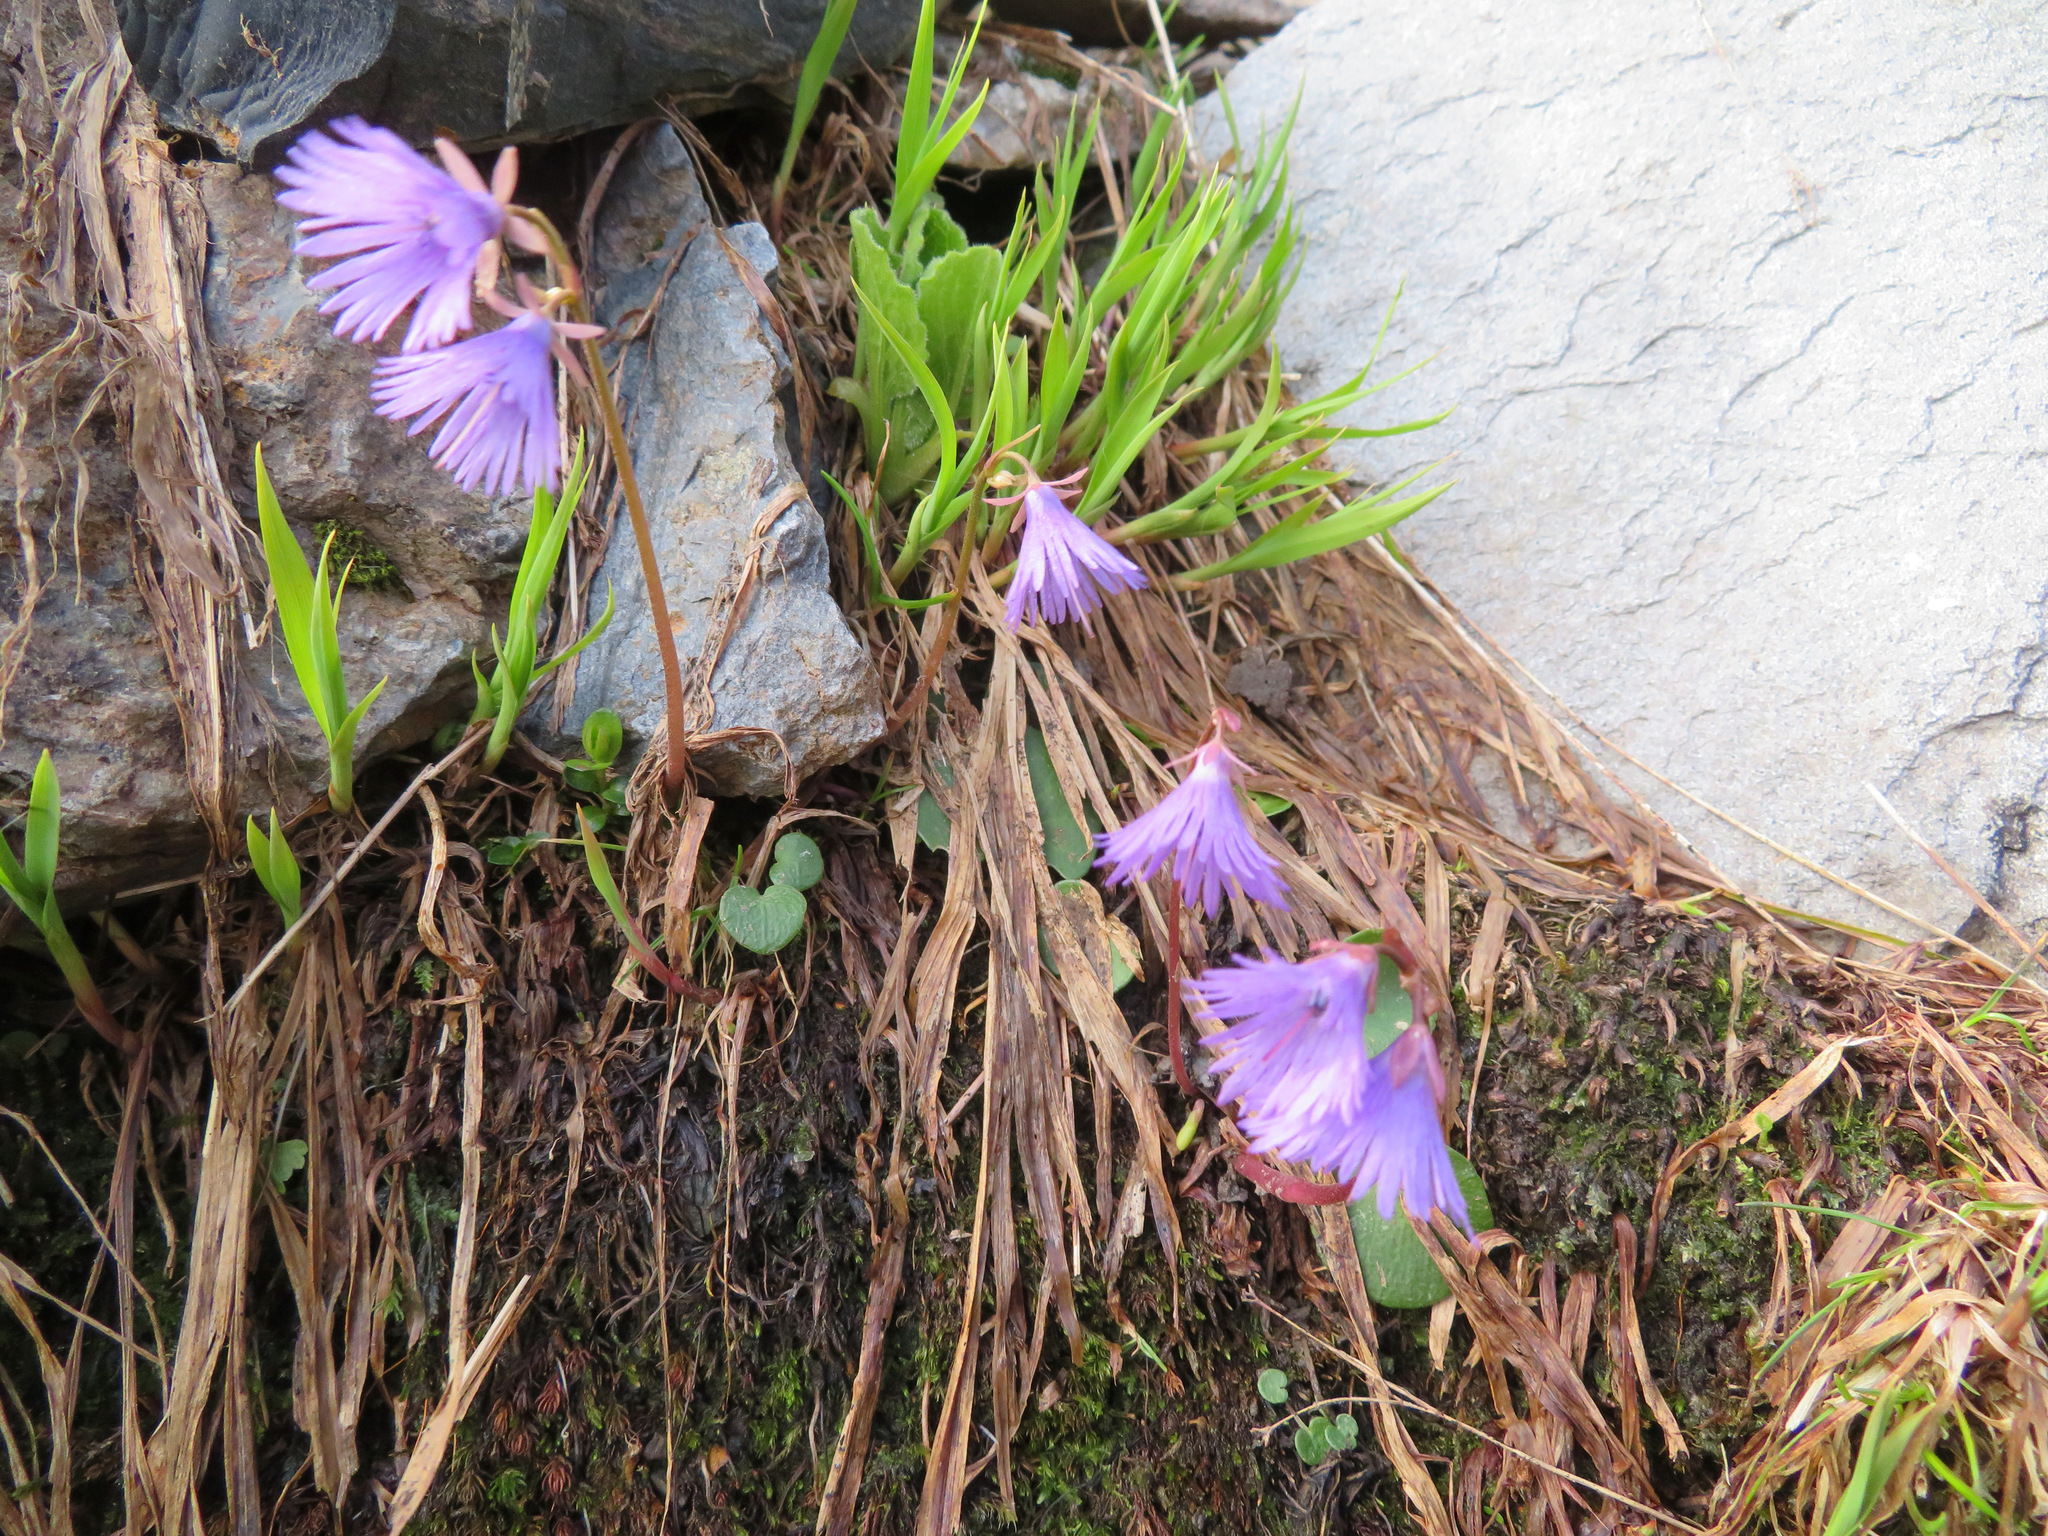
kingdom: Plantae
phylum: Tracheophyta
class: Magnoliopsida
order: Ericales
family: Primulaceae
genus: Soldanella
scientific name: Soldanella alpina
